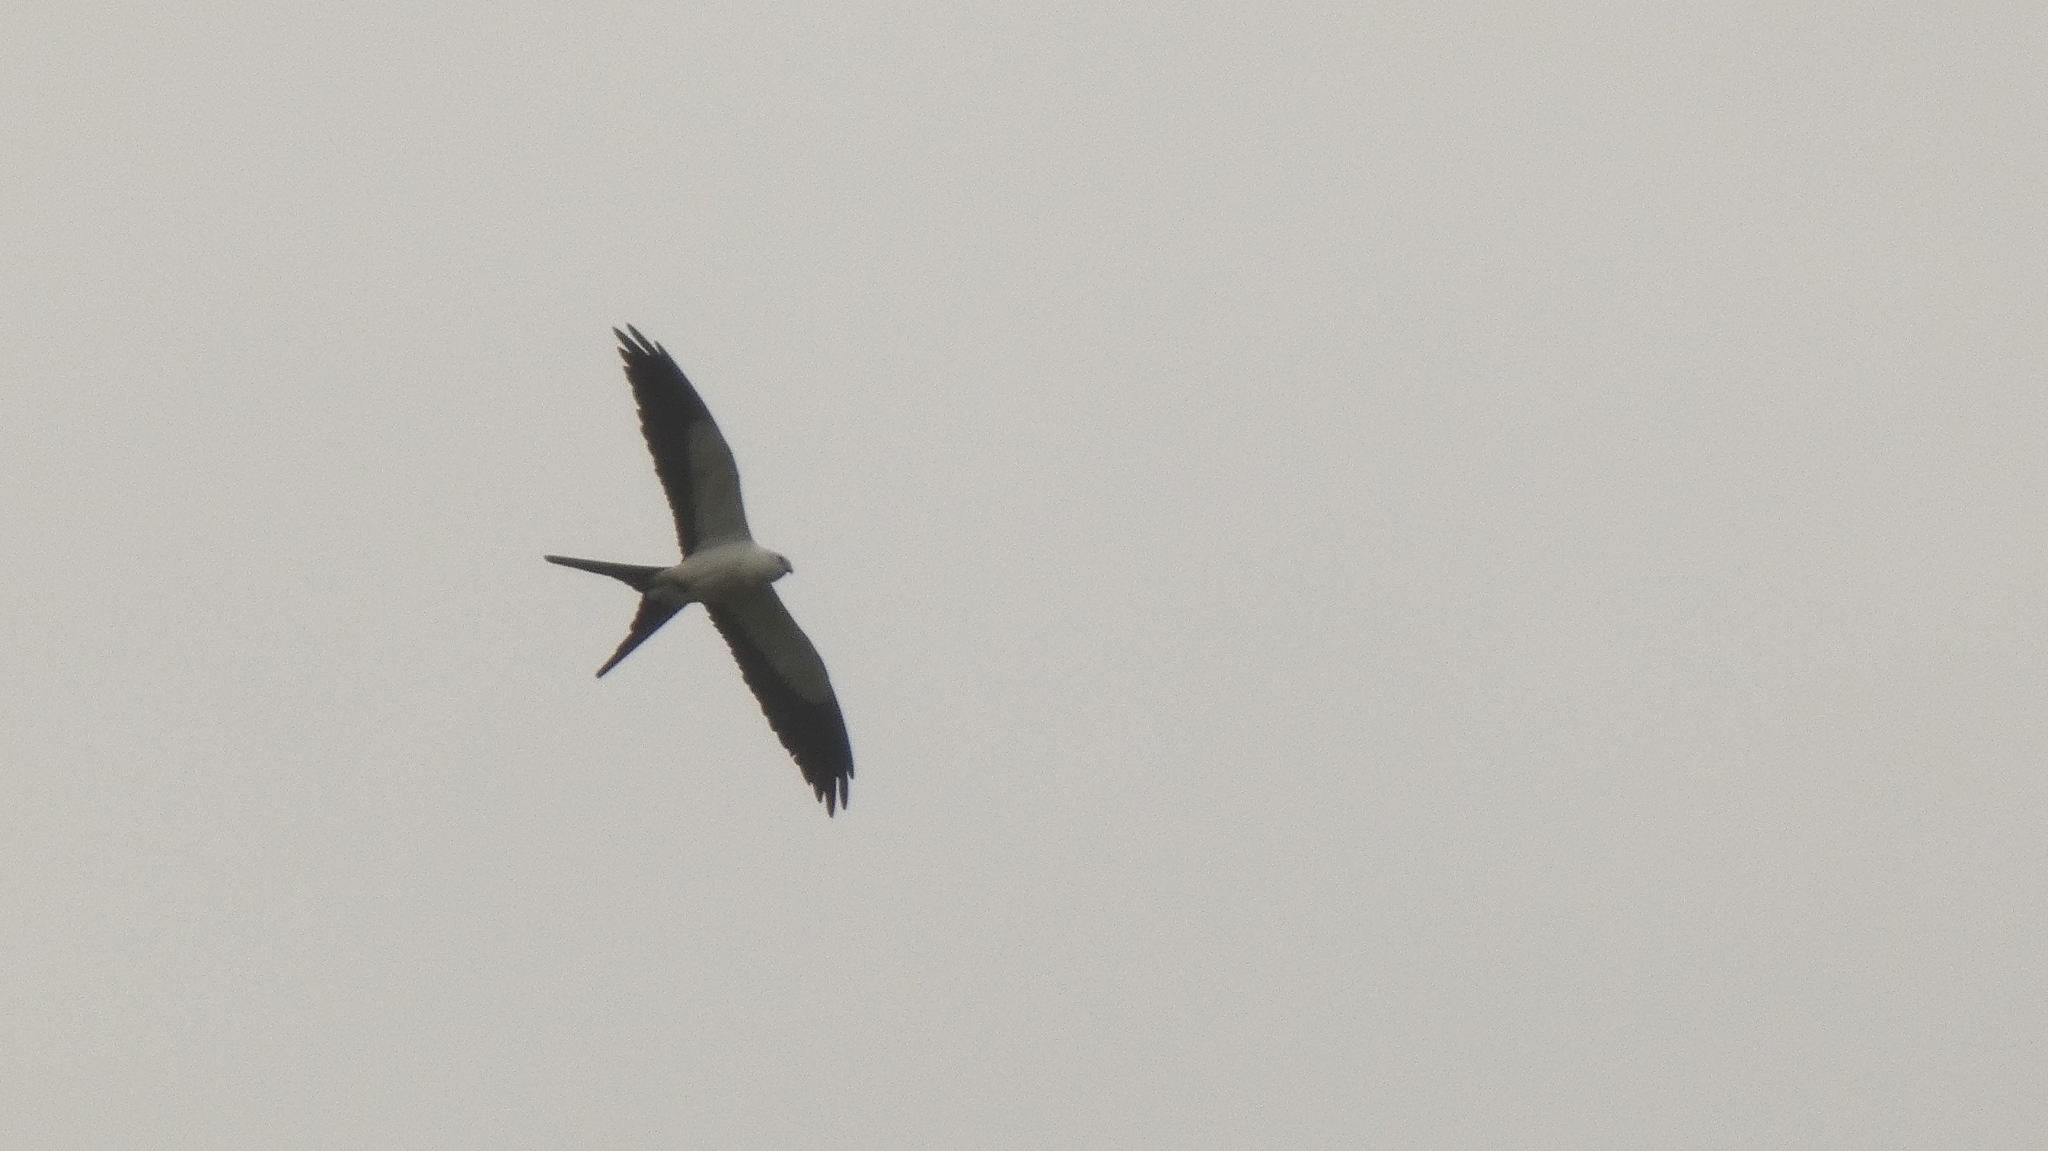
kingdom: Animalia
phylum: Chordata
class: Aves
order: Accipitriformes
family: Accipitridae
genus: Elanoides
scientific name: Elanoides forficatus
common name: Swallow-tailed kite
